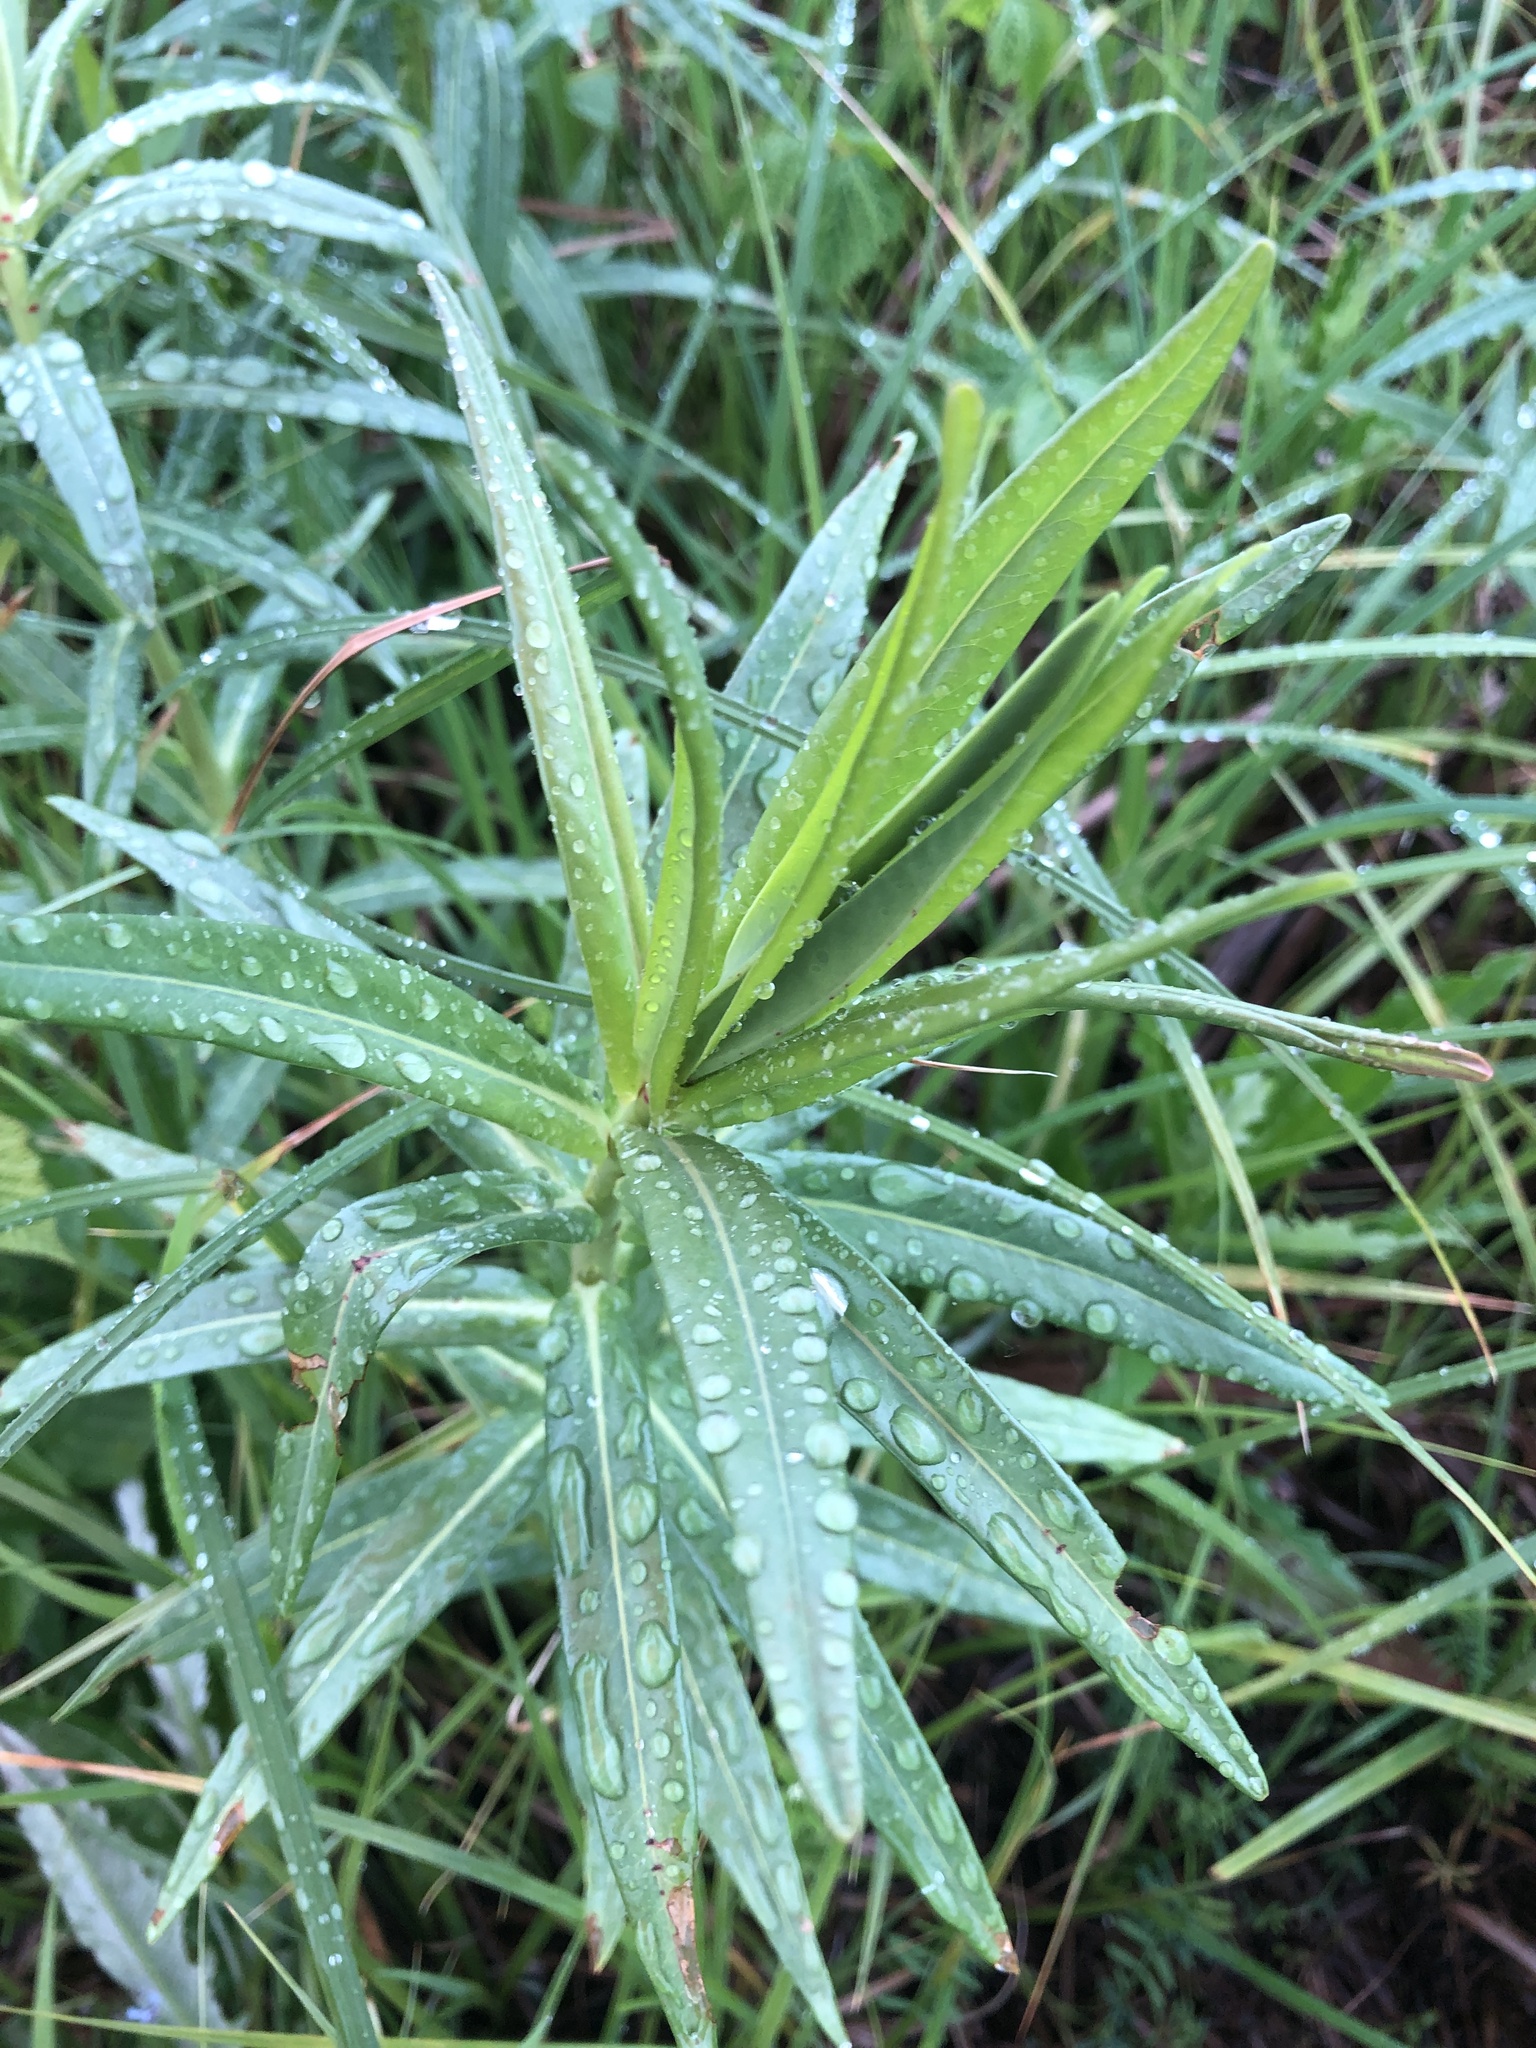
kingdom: Plantae
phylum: Tracheophyta
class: Magnoliopsida
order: Malpighiales
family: Euphorbiaceae
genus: Euphorbia
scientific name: Euphorbia lucida
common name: Shining spurge
